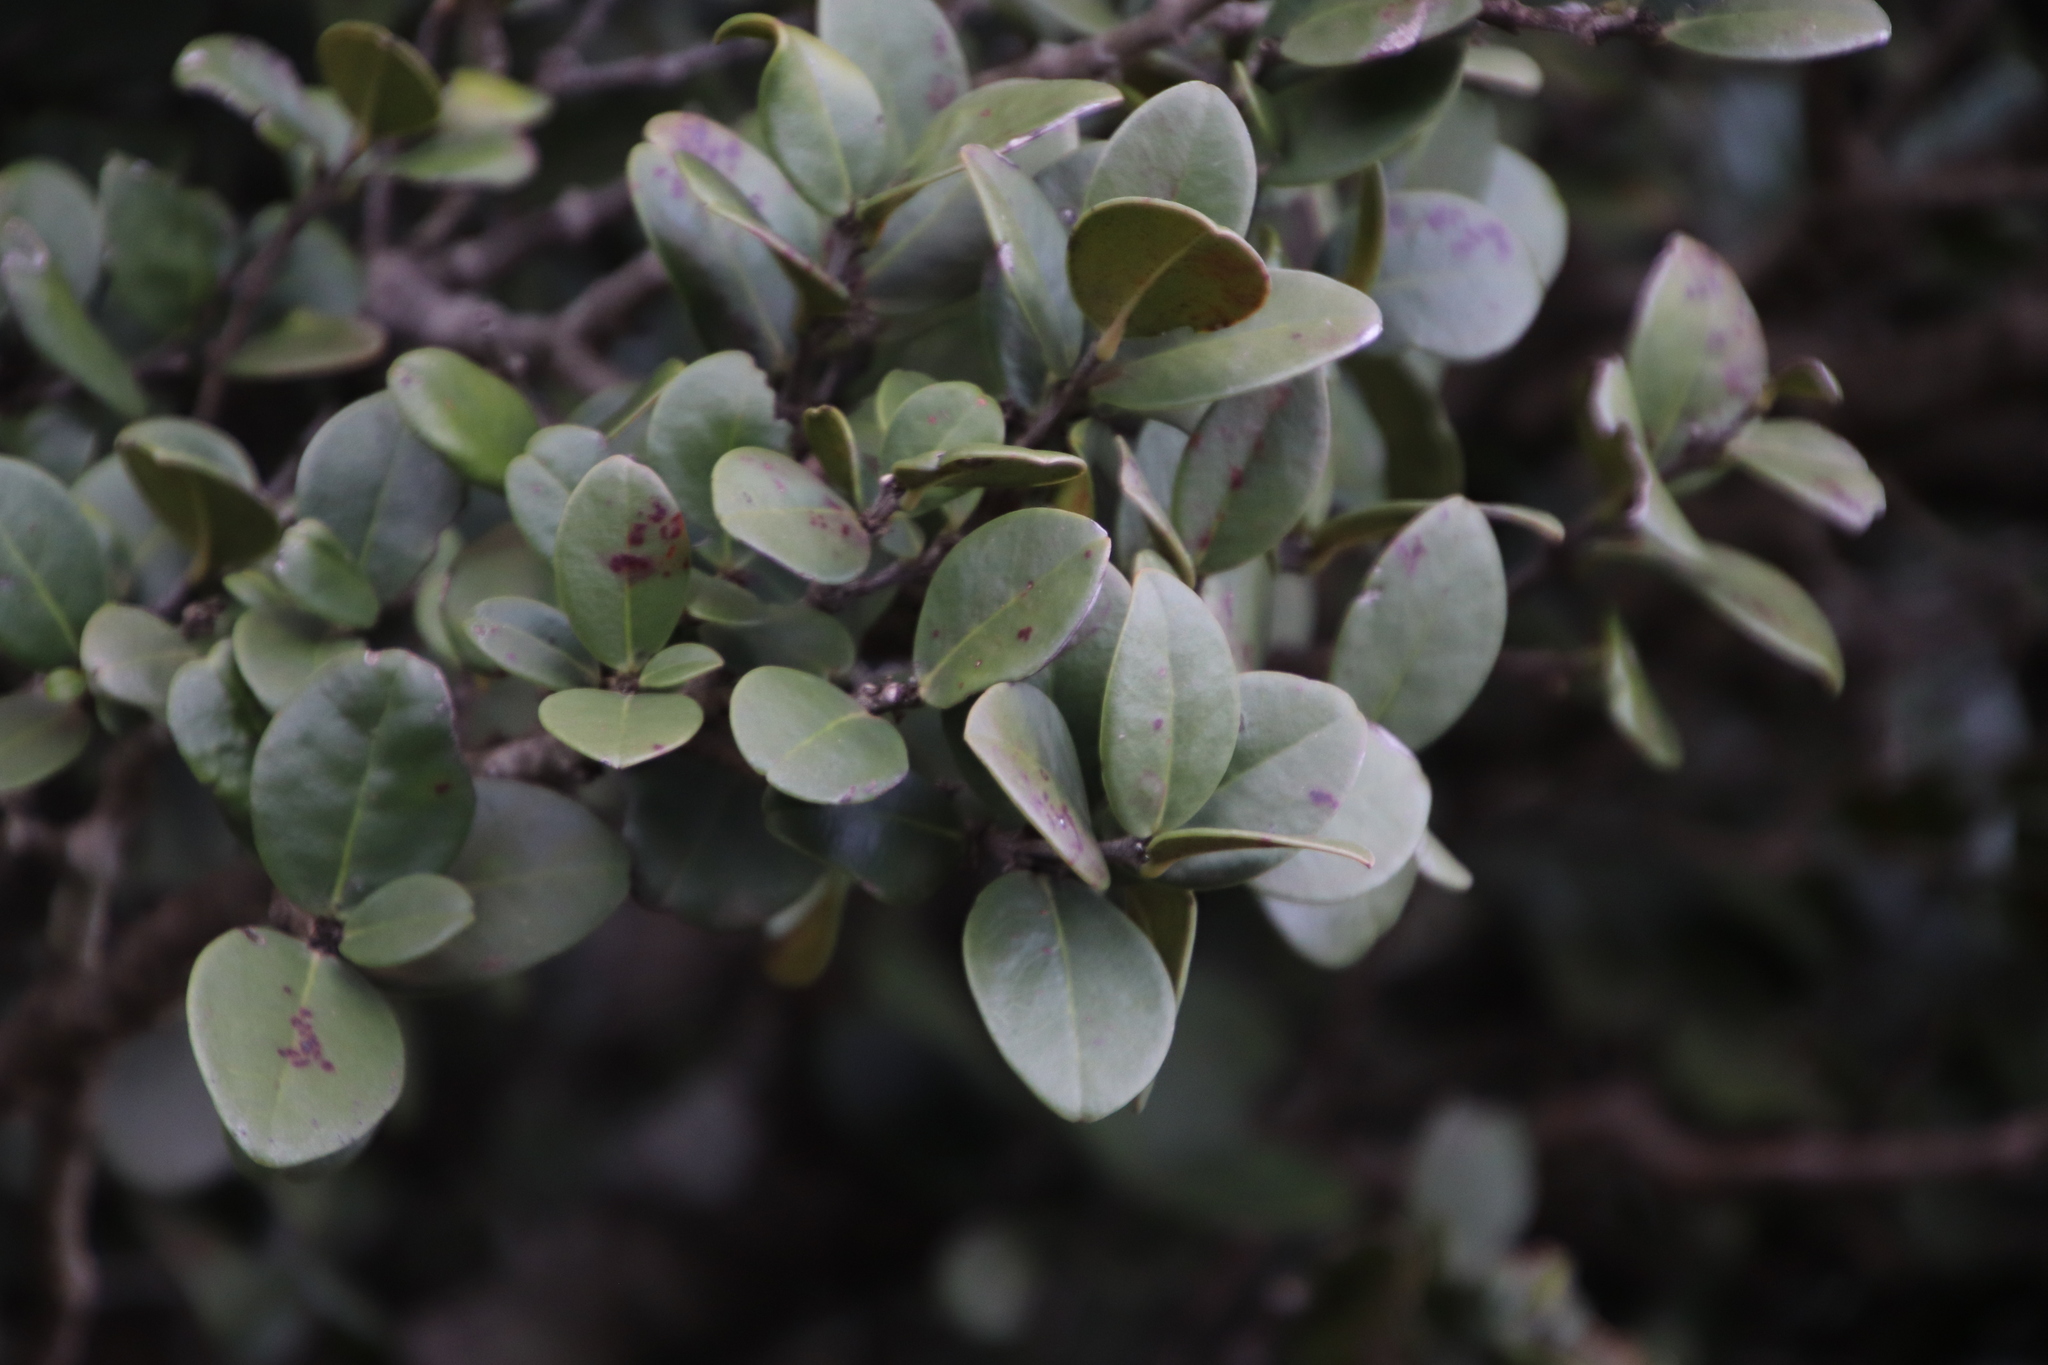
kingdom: Plantae
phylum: Tracheophyta
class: Magnoliopsida
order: Celastrales
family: Celastraceae
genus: Maurocenia
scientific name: Maurocenia frangula
